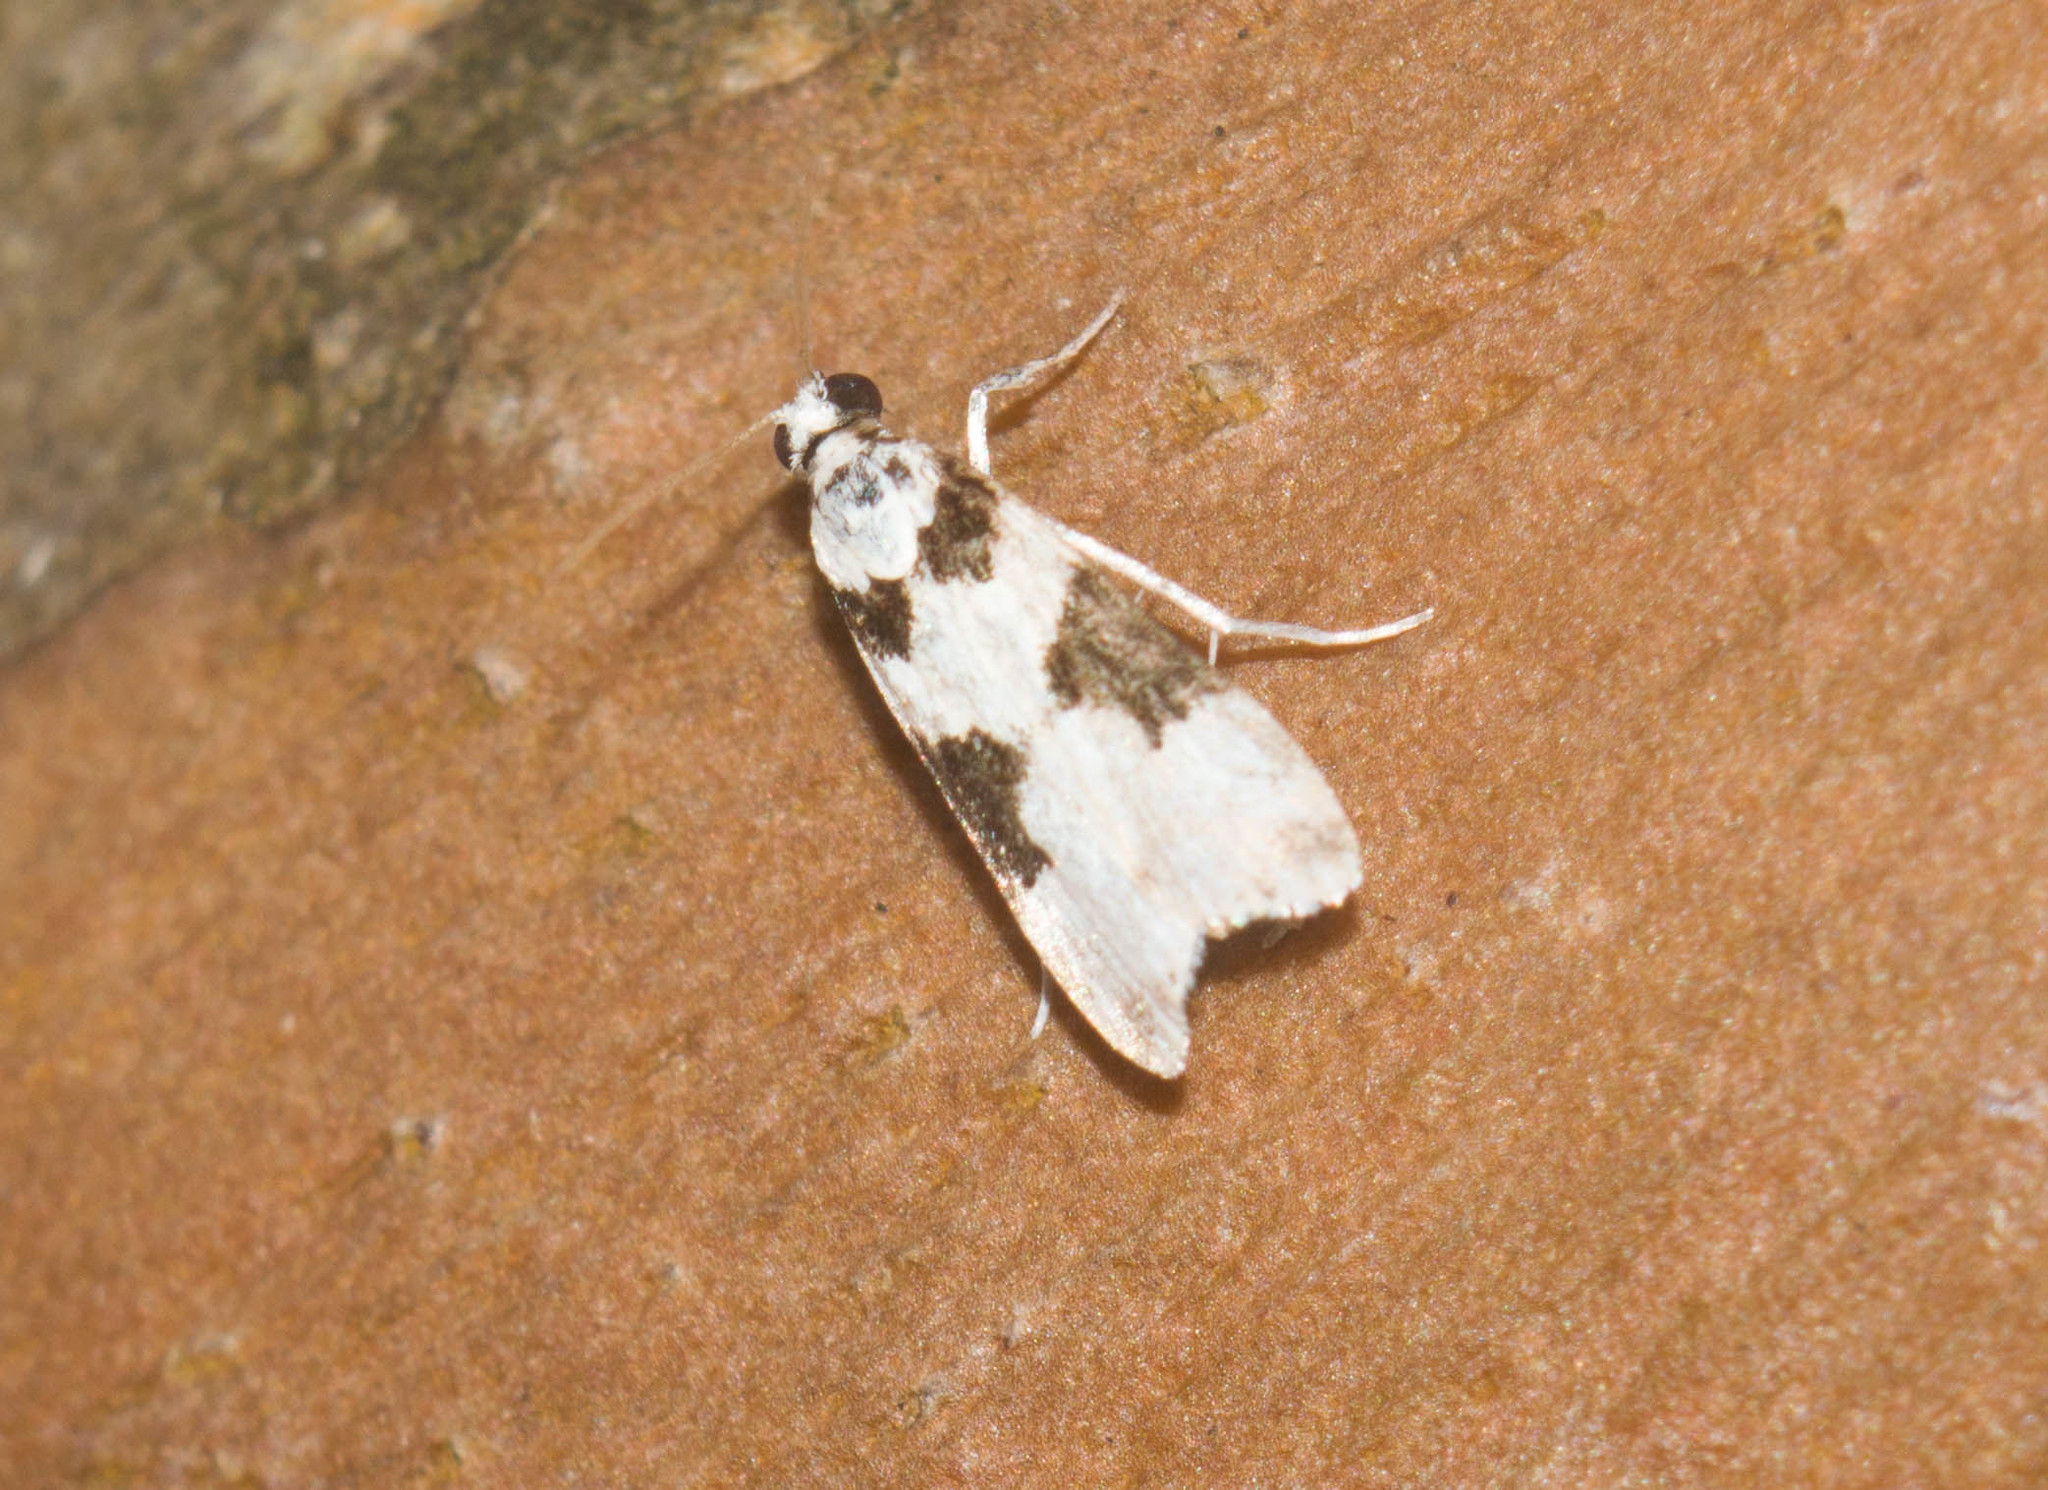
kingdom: Animalia
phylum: Arthropoda
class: Insecta
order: Lepidoptera
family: Crambidae
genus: Eudonia
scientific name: Eudonia
